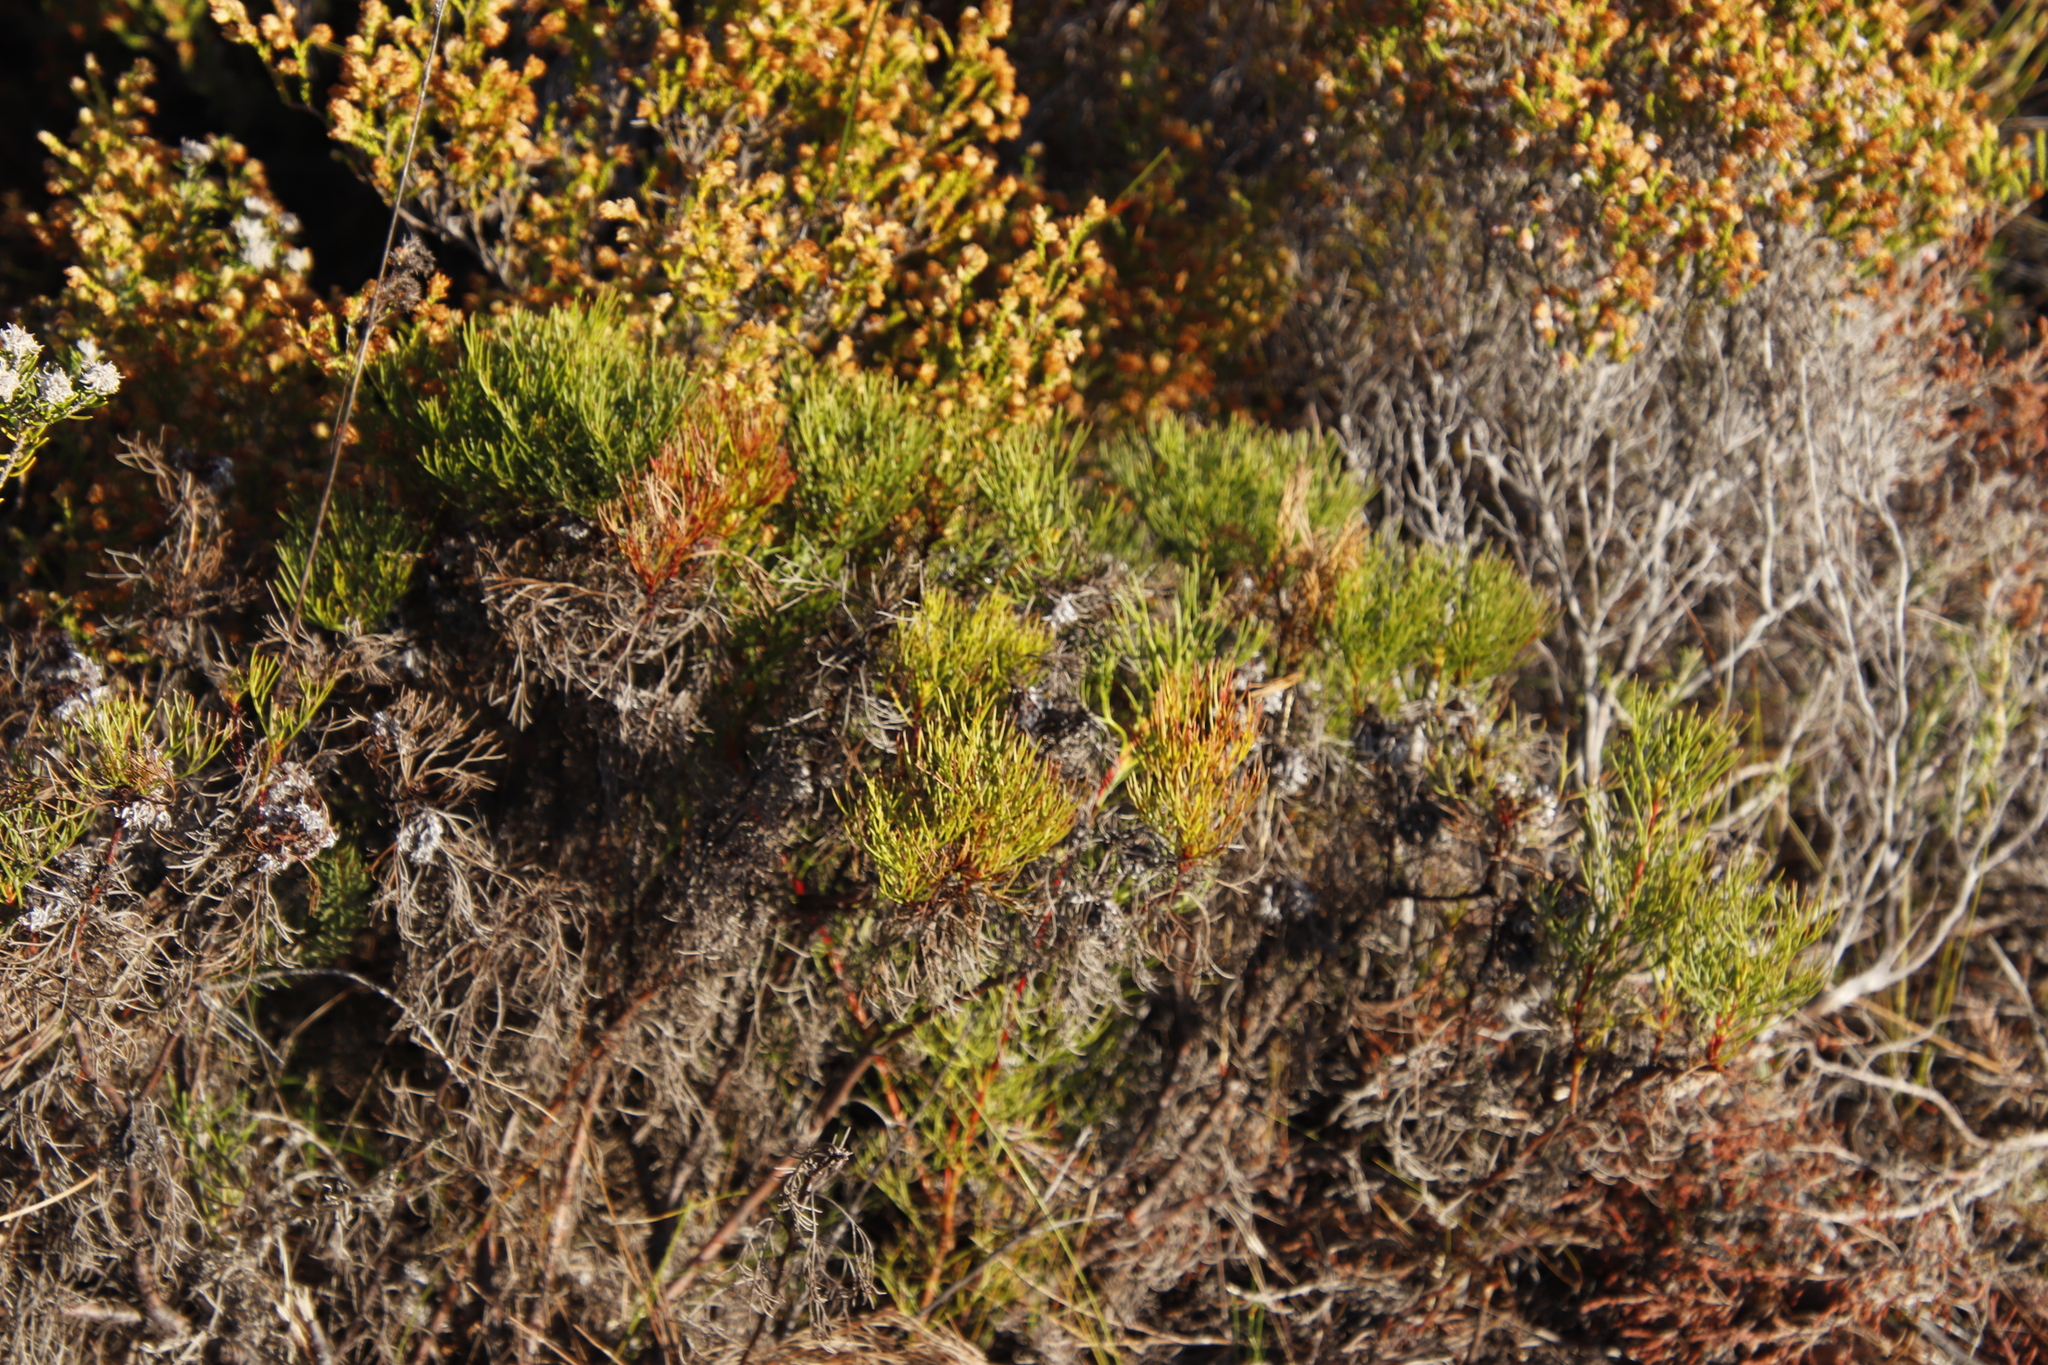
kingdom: Plantae
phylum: Tracheophyta
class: Magnoliopsida
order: Proteales
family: Proteaceae
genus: Serruria
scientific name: Serruria ascendens
